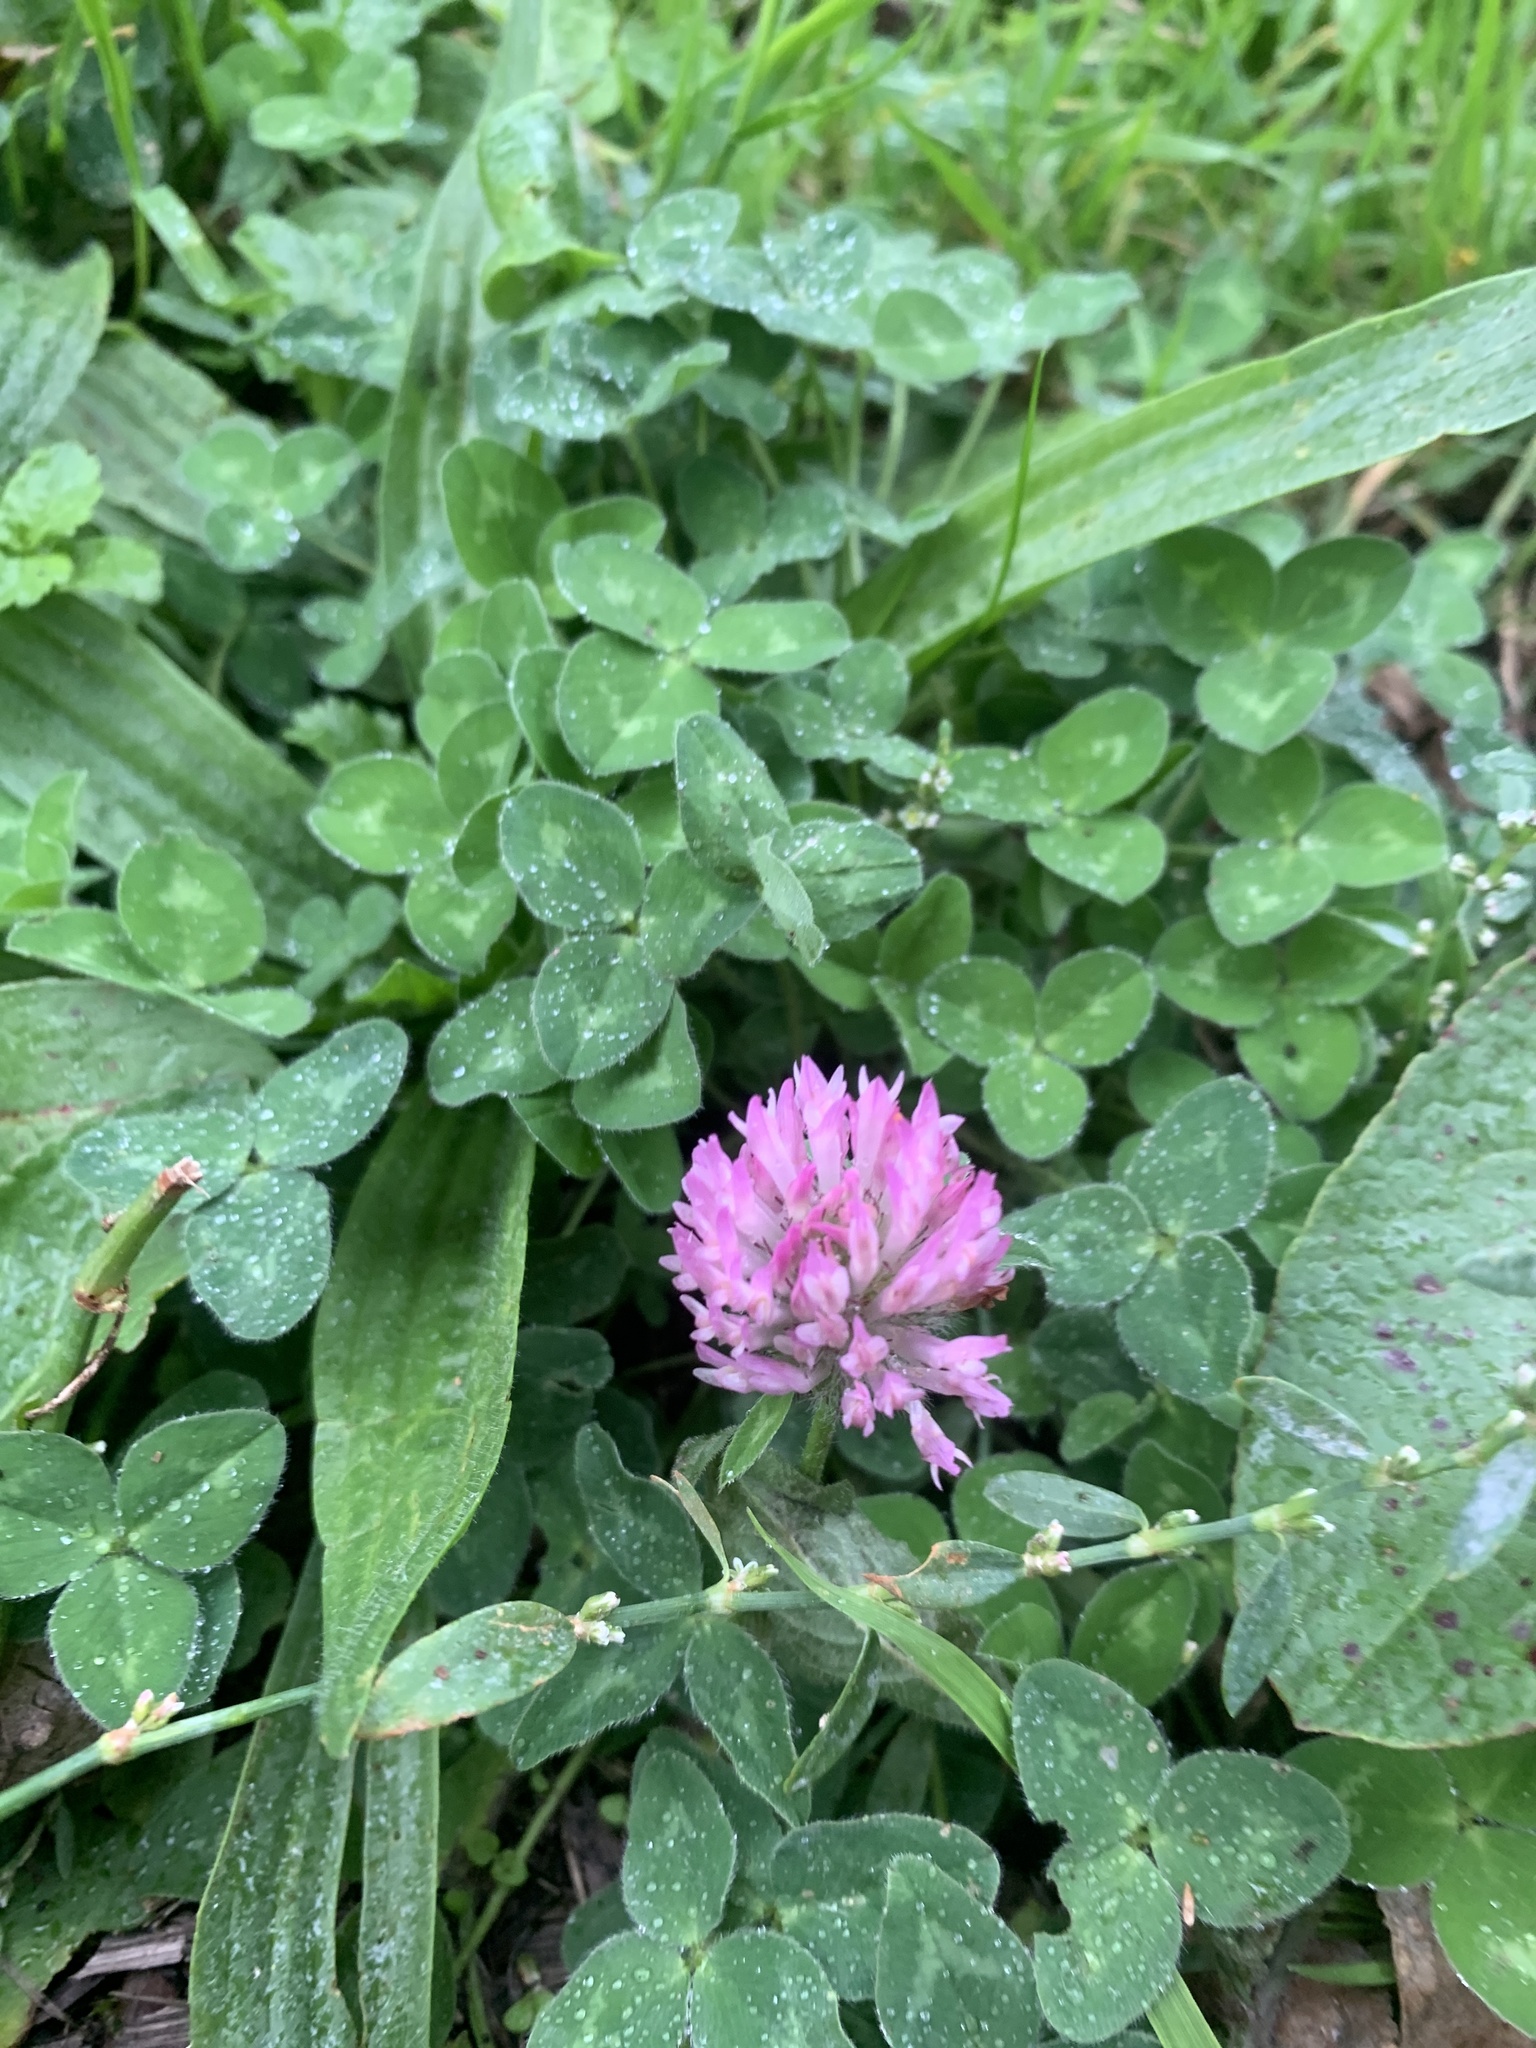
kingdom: Plantae
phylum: Tracheophyta
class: Magnoliopsida
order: Fabales
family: Fabaceae
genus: Trifolium
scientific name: Trifolium pratense
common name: Red clover
